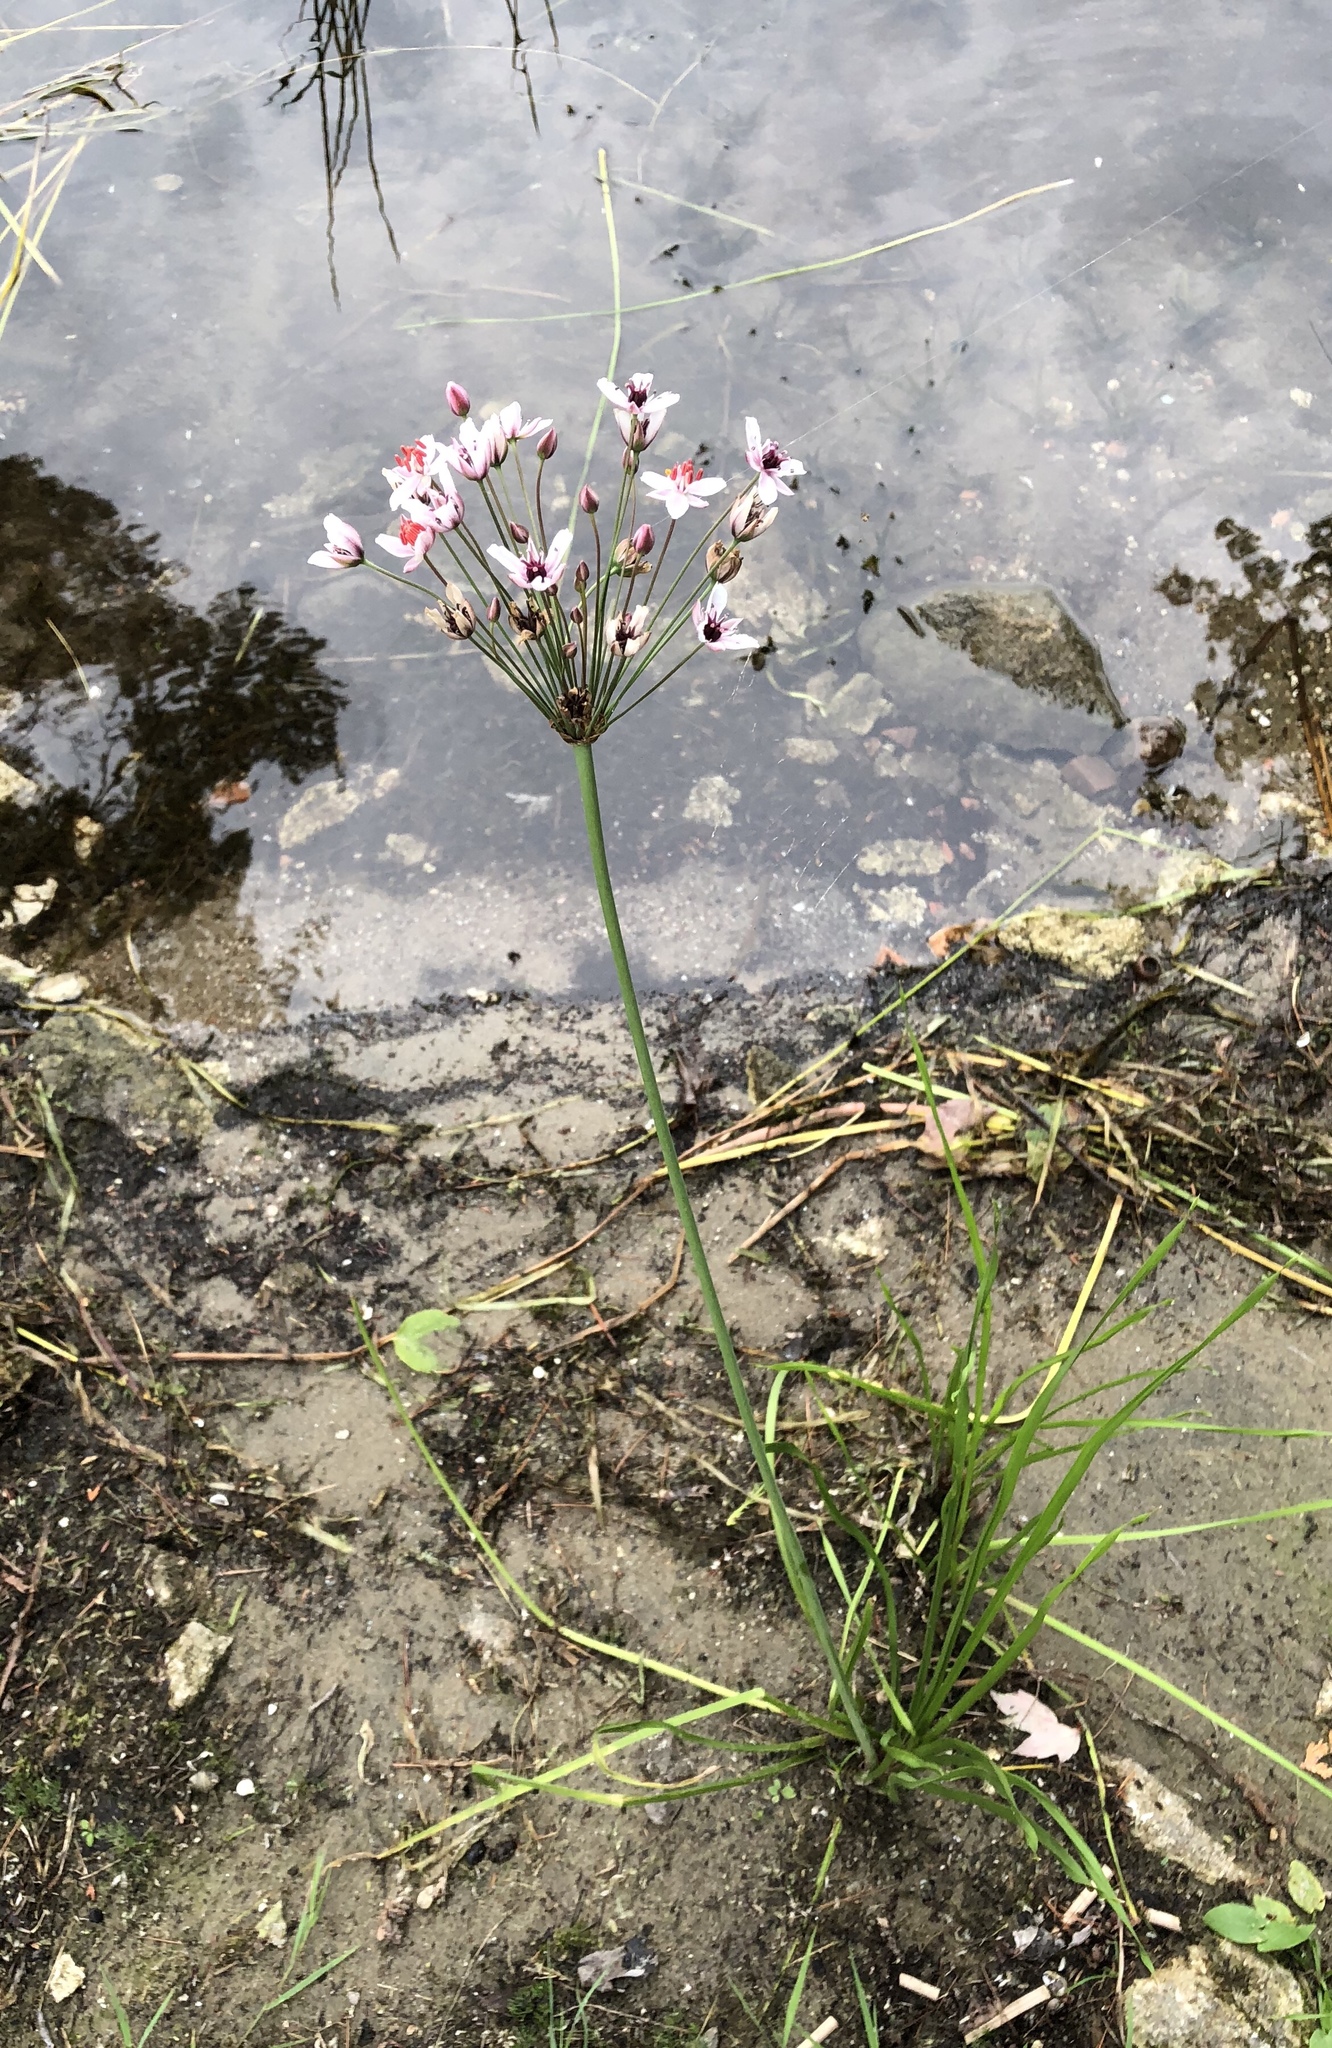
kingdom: Plantae
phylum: Tracheophyta
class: Liliopsida
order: Alismatales
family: Butomaceae
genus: Butomus
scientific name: Butomus umbellatus
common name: Flowering-rush
